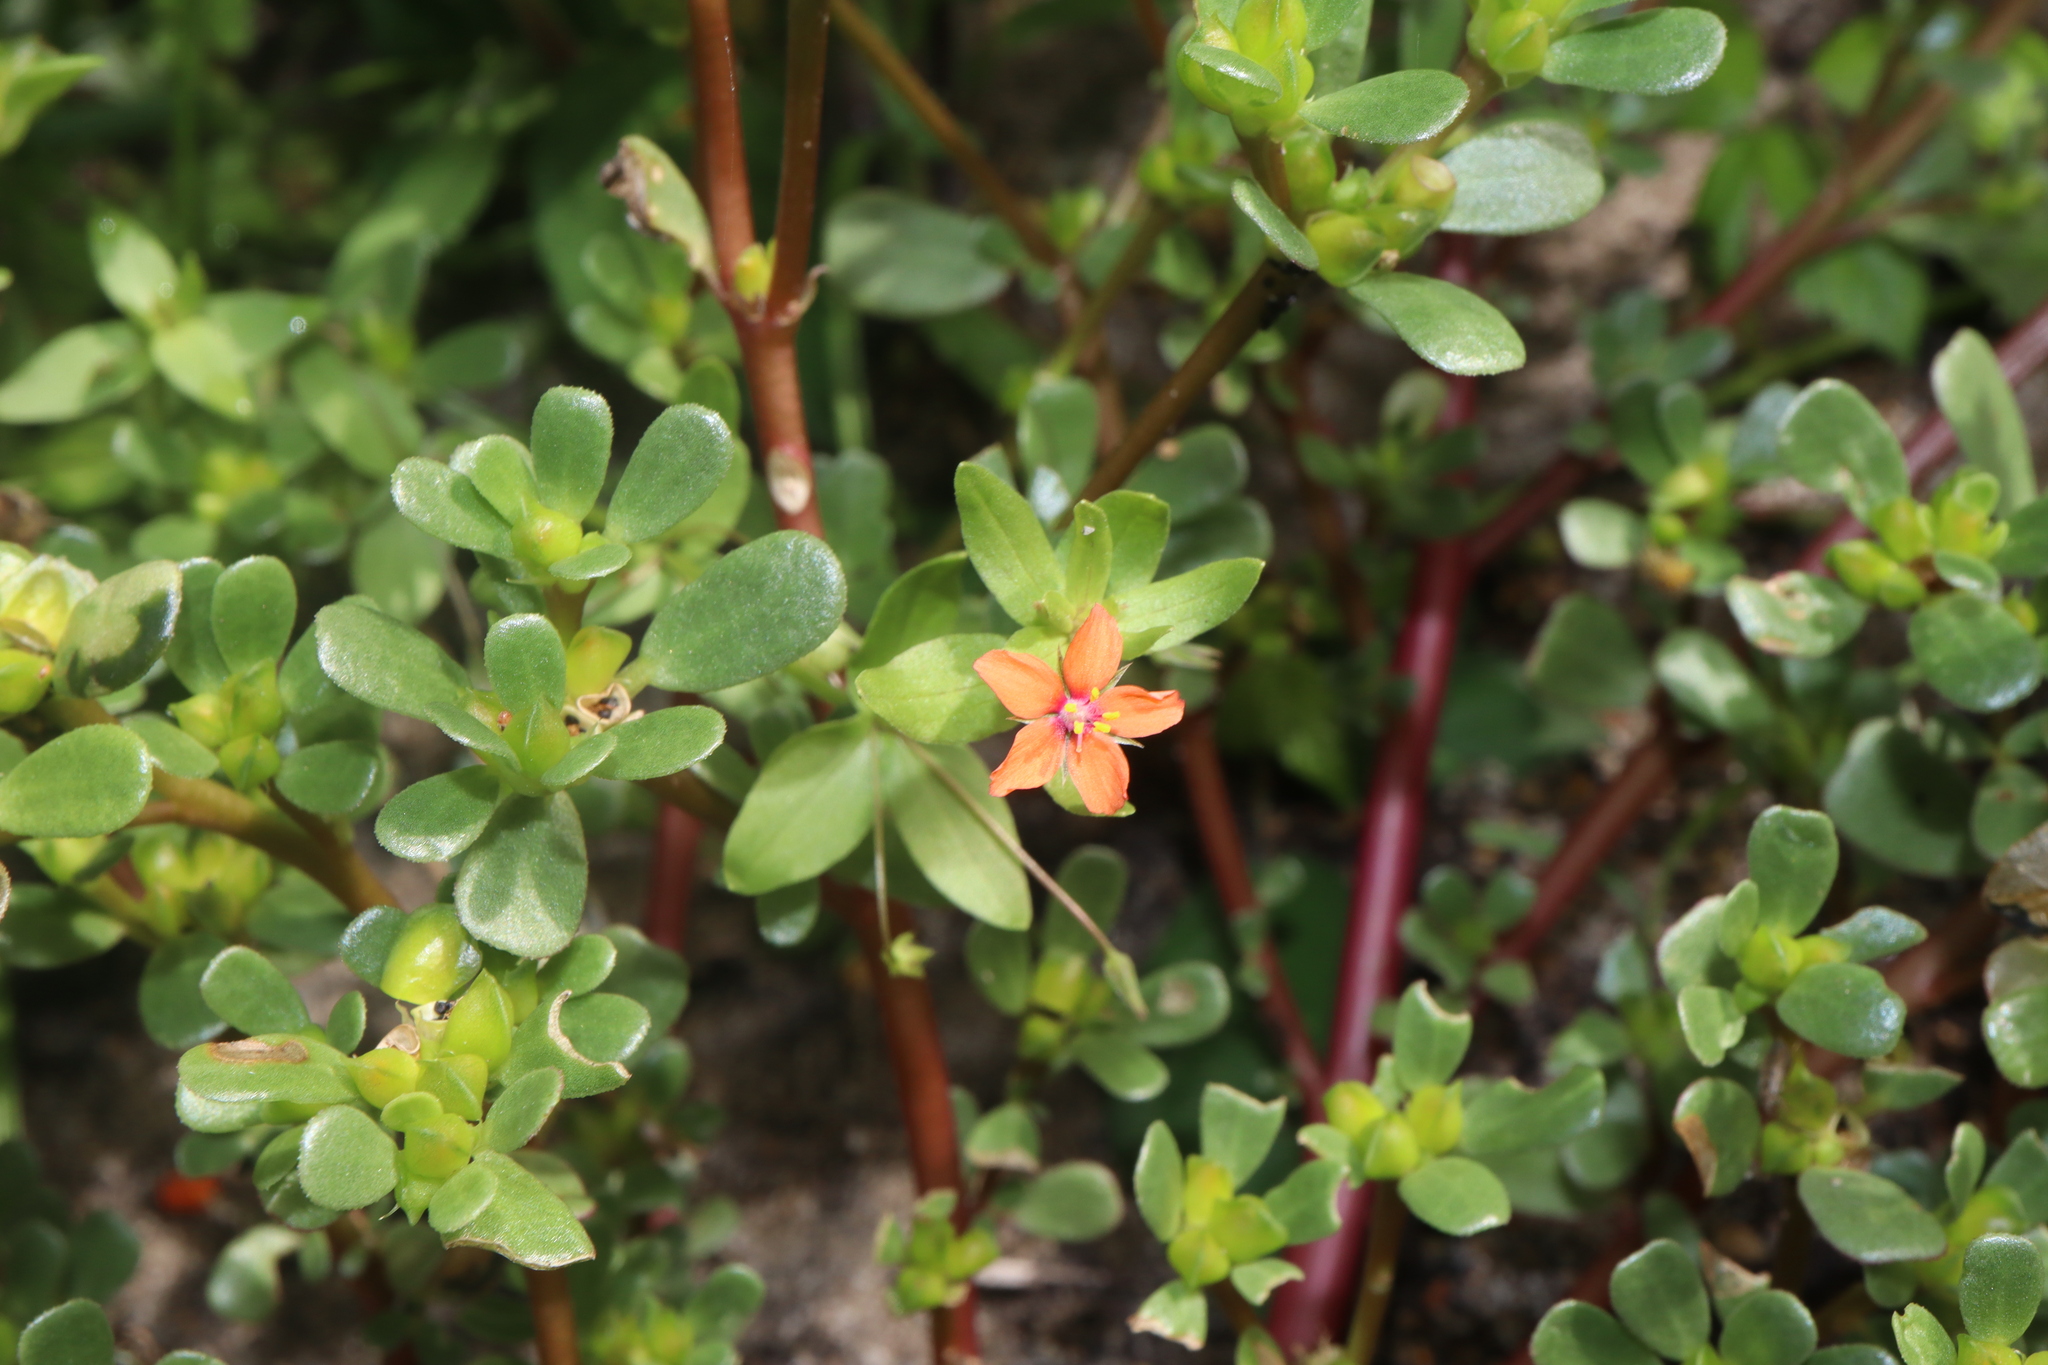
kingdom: Plantae
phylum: Tracheophyta
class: Magnoliopsida
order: Ericales
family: Primulaceae
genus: Lysimachia
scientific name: Lysimachia arvensis
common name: Scarlet pimpernel
